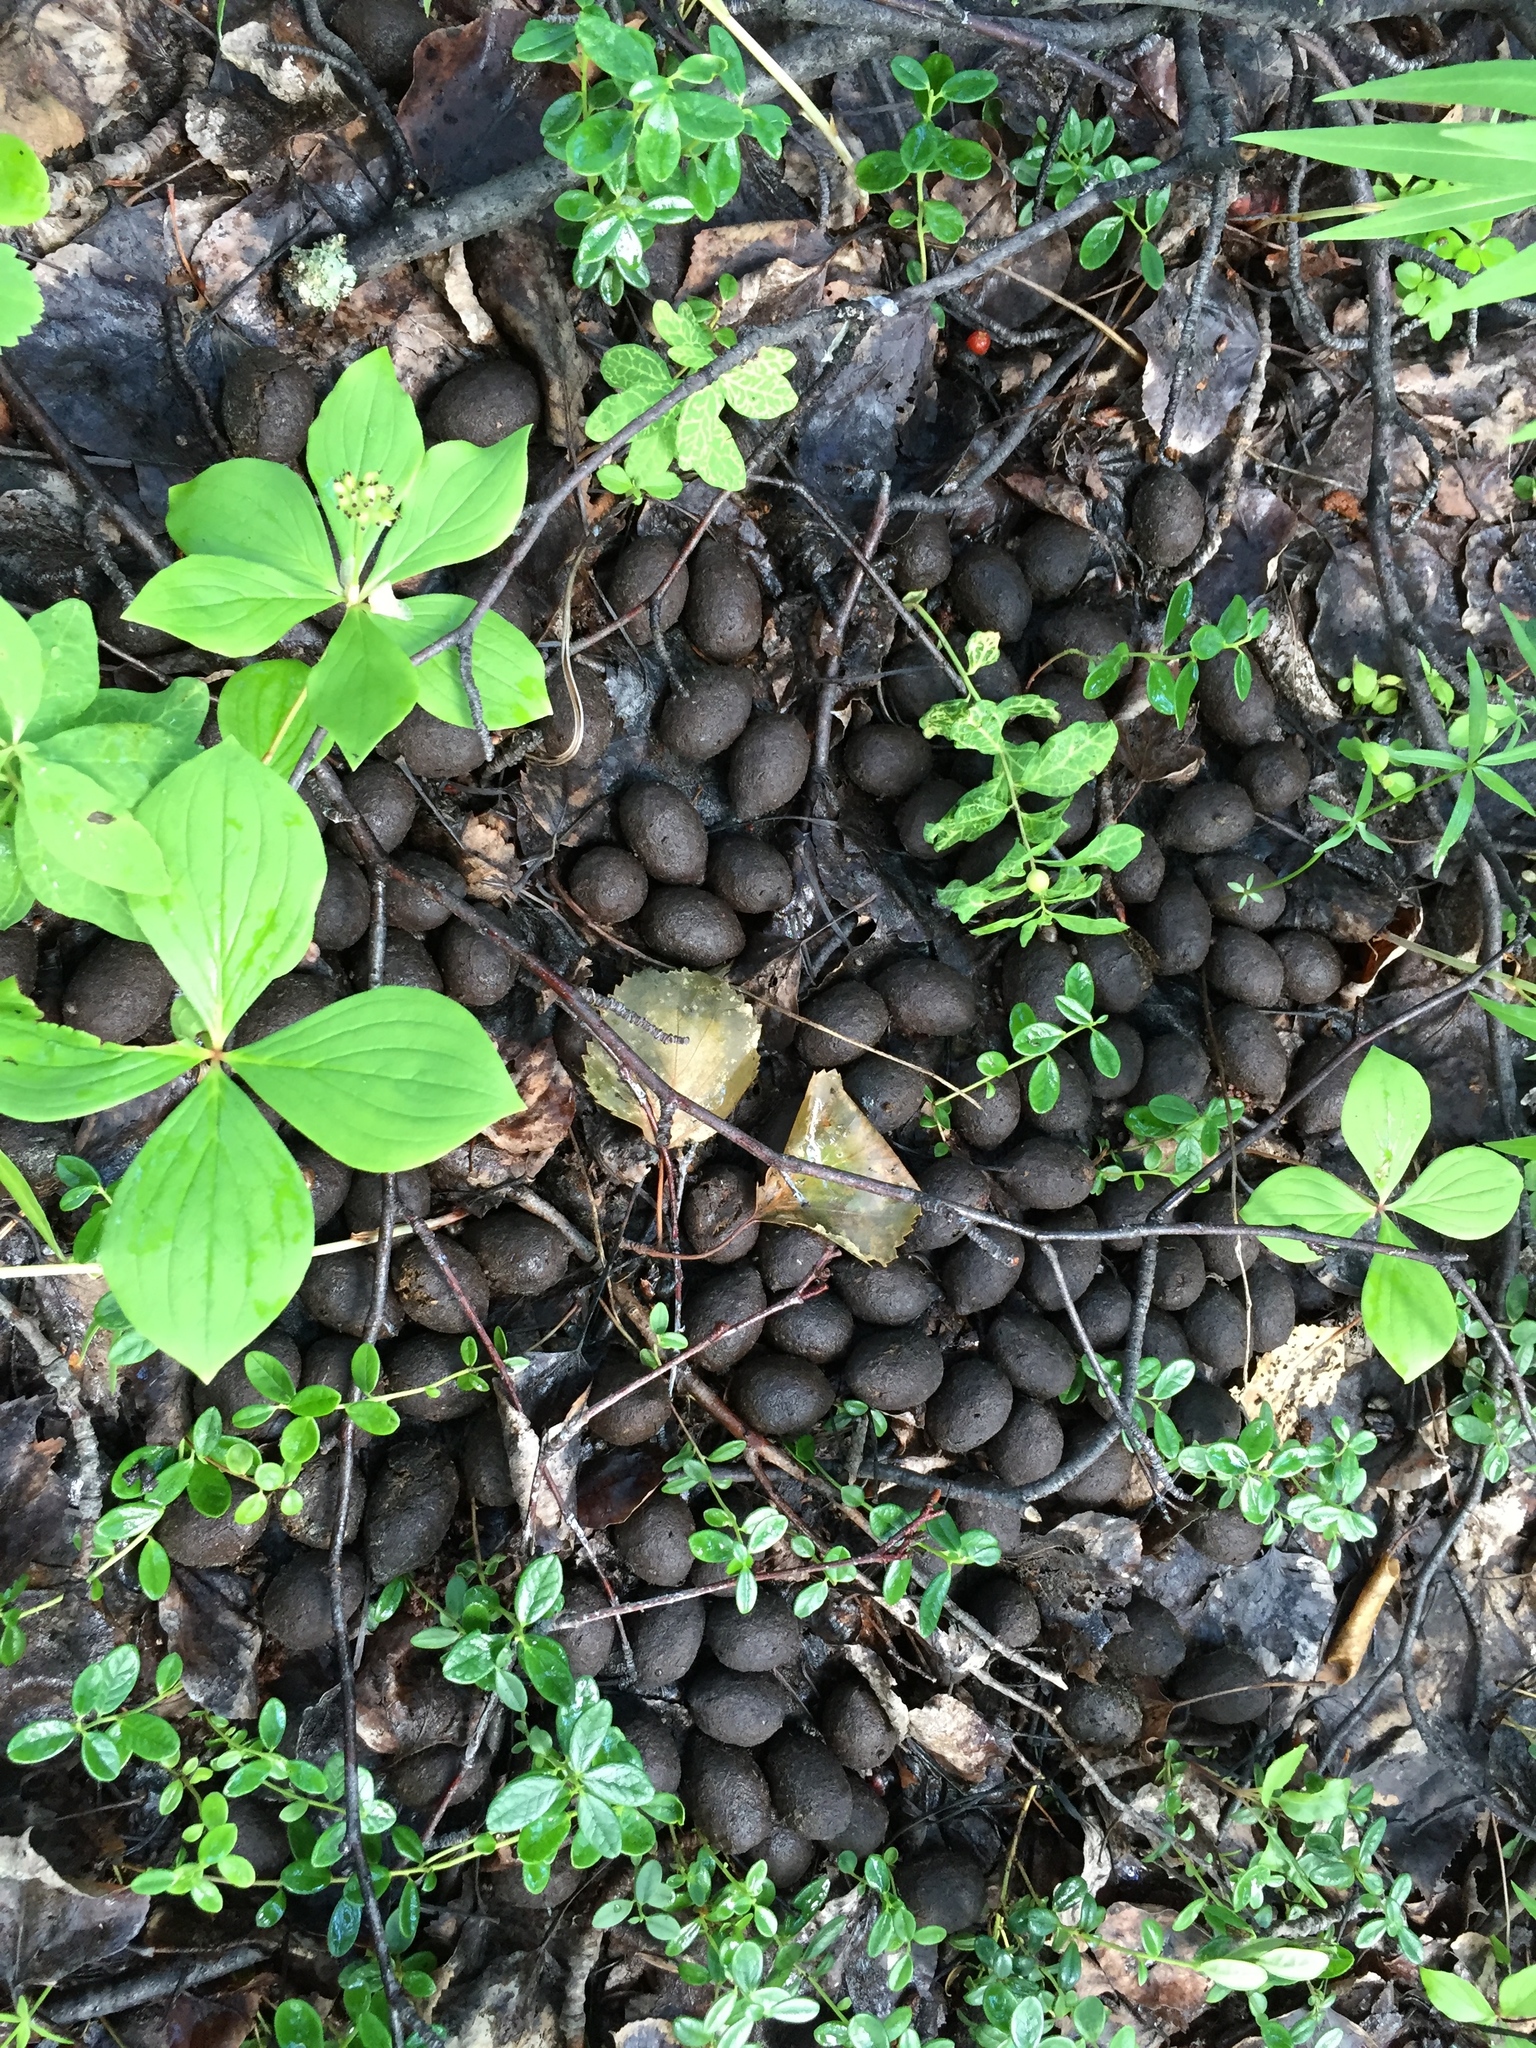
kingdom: Animalia
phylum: Chordata
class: Mammalia
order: Artiodactyla
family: Cervidae
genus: Alces
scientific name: Alces alces
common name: Moose
